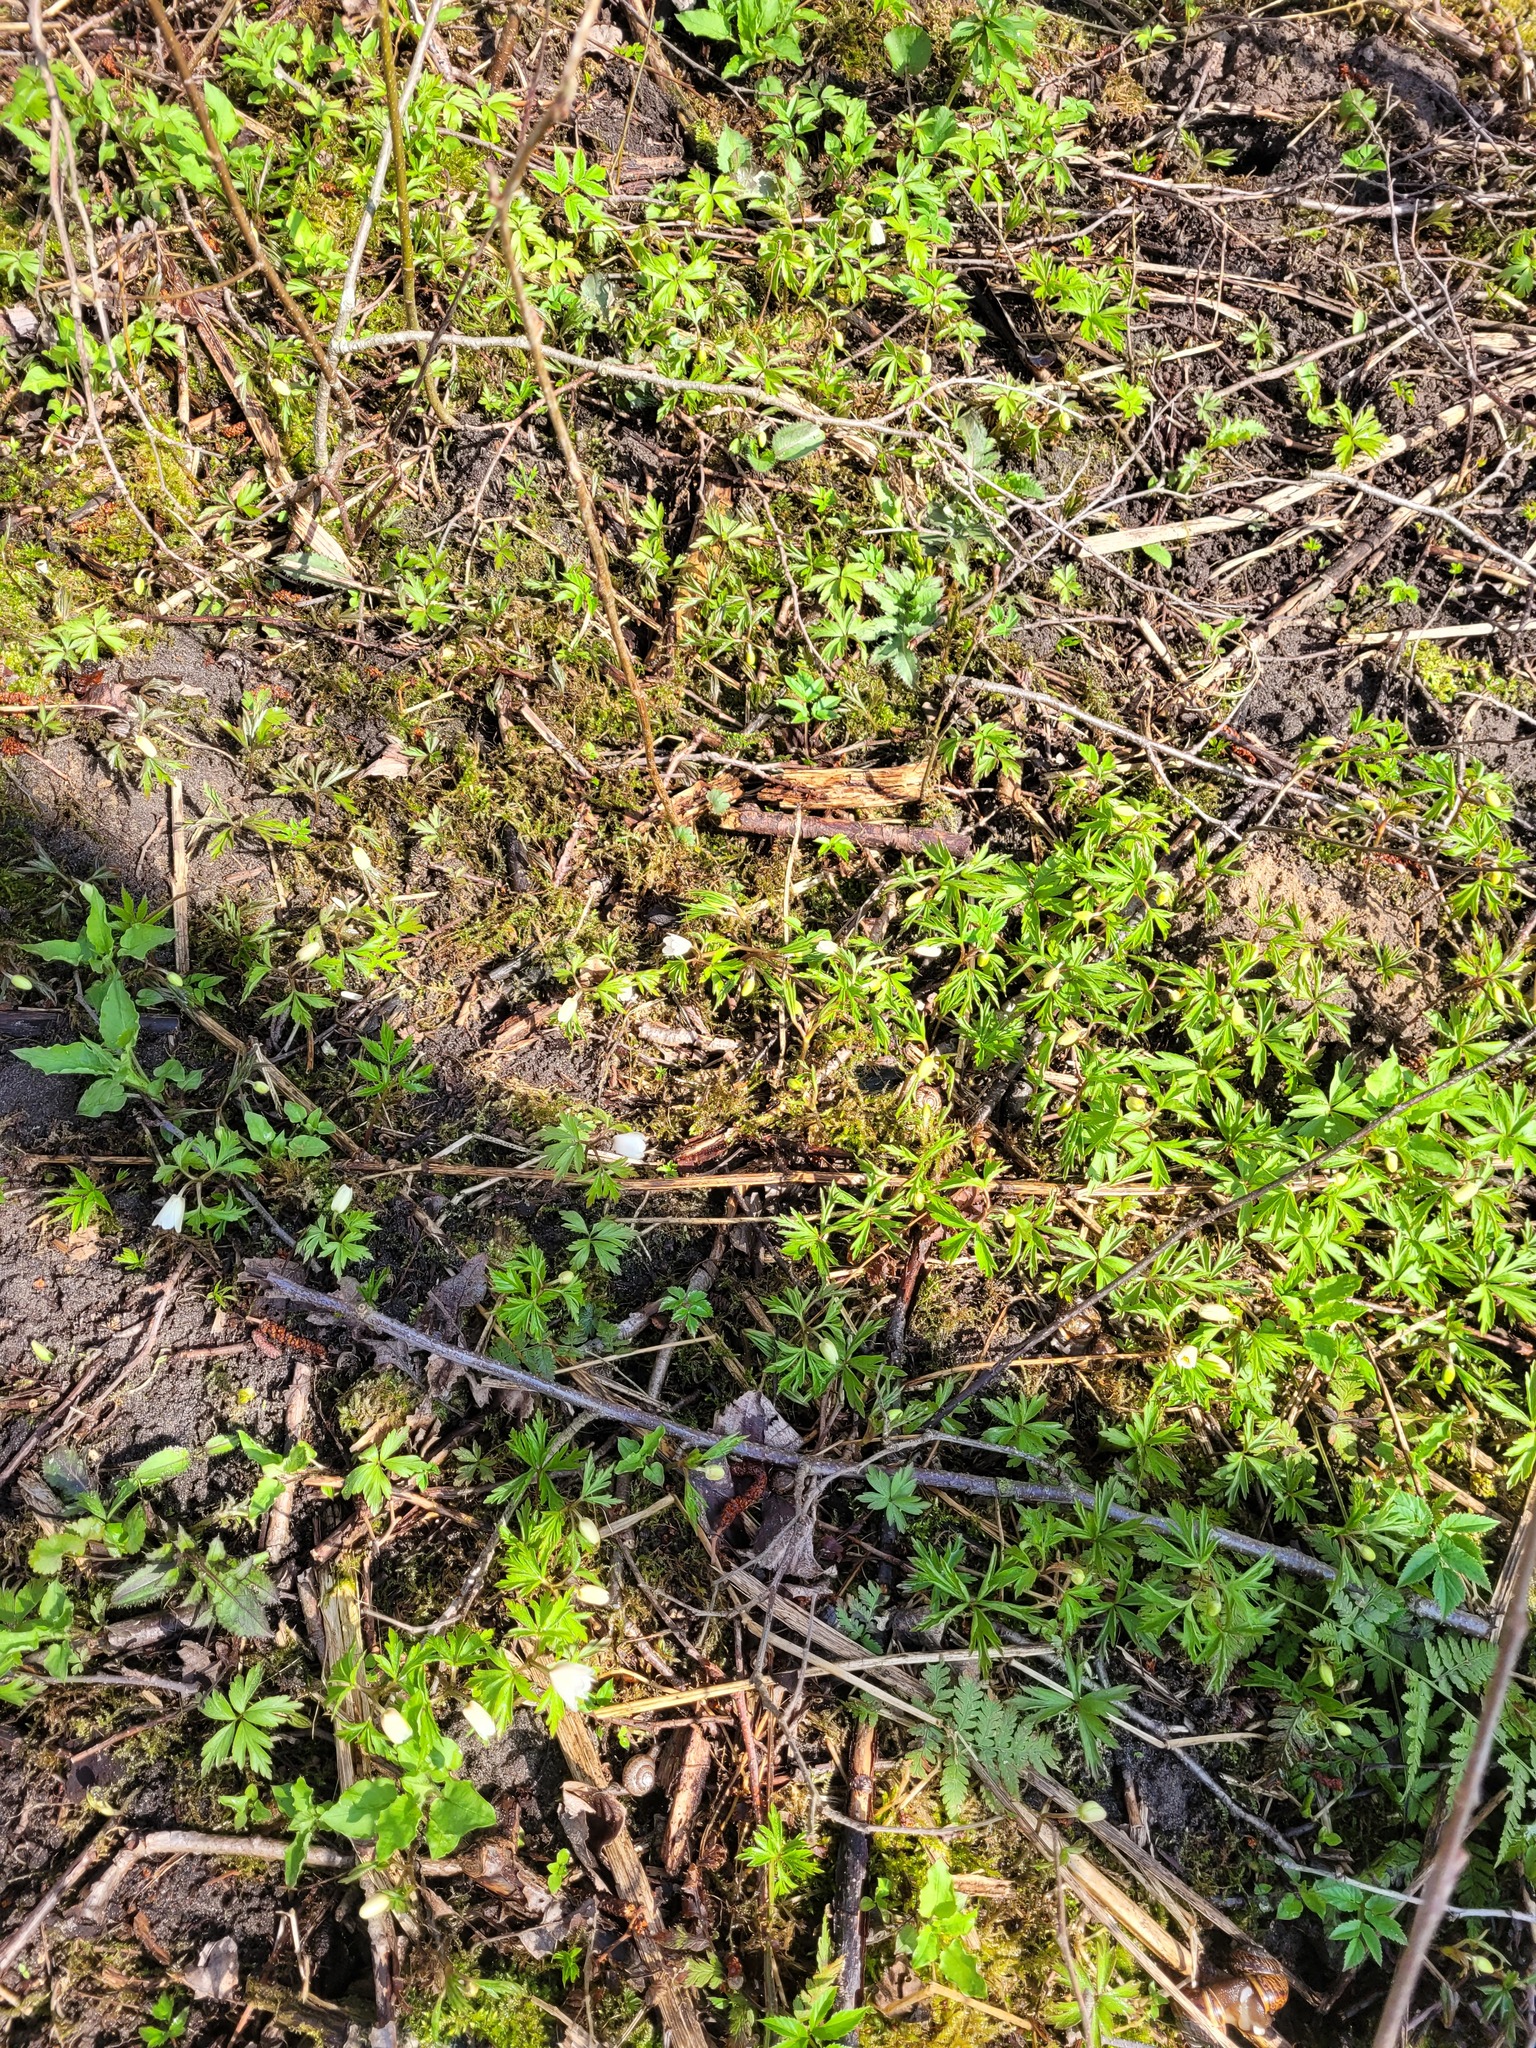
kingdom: Plantae
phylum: Tracheophyta
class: Magnoliopsida
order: Ranunculales
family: Ranunculaceae
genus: Anemone
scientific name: Anemone nemorosa
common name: Wood anemone
